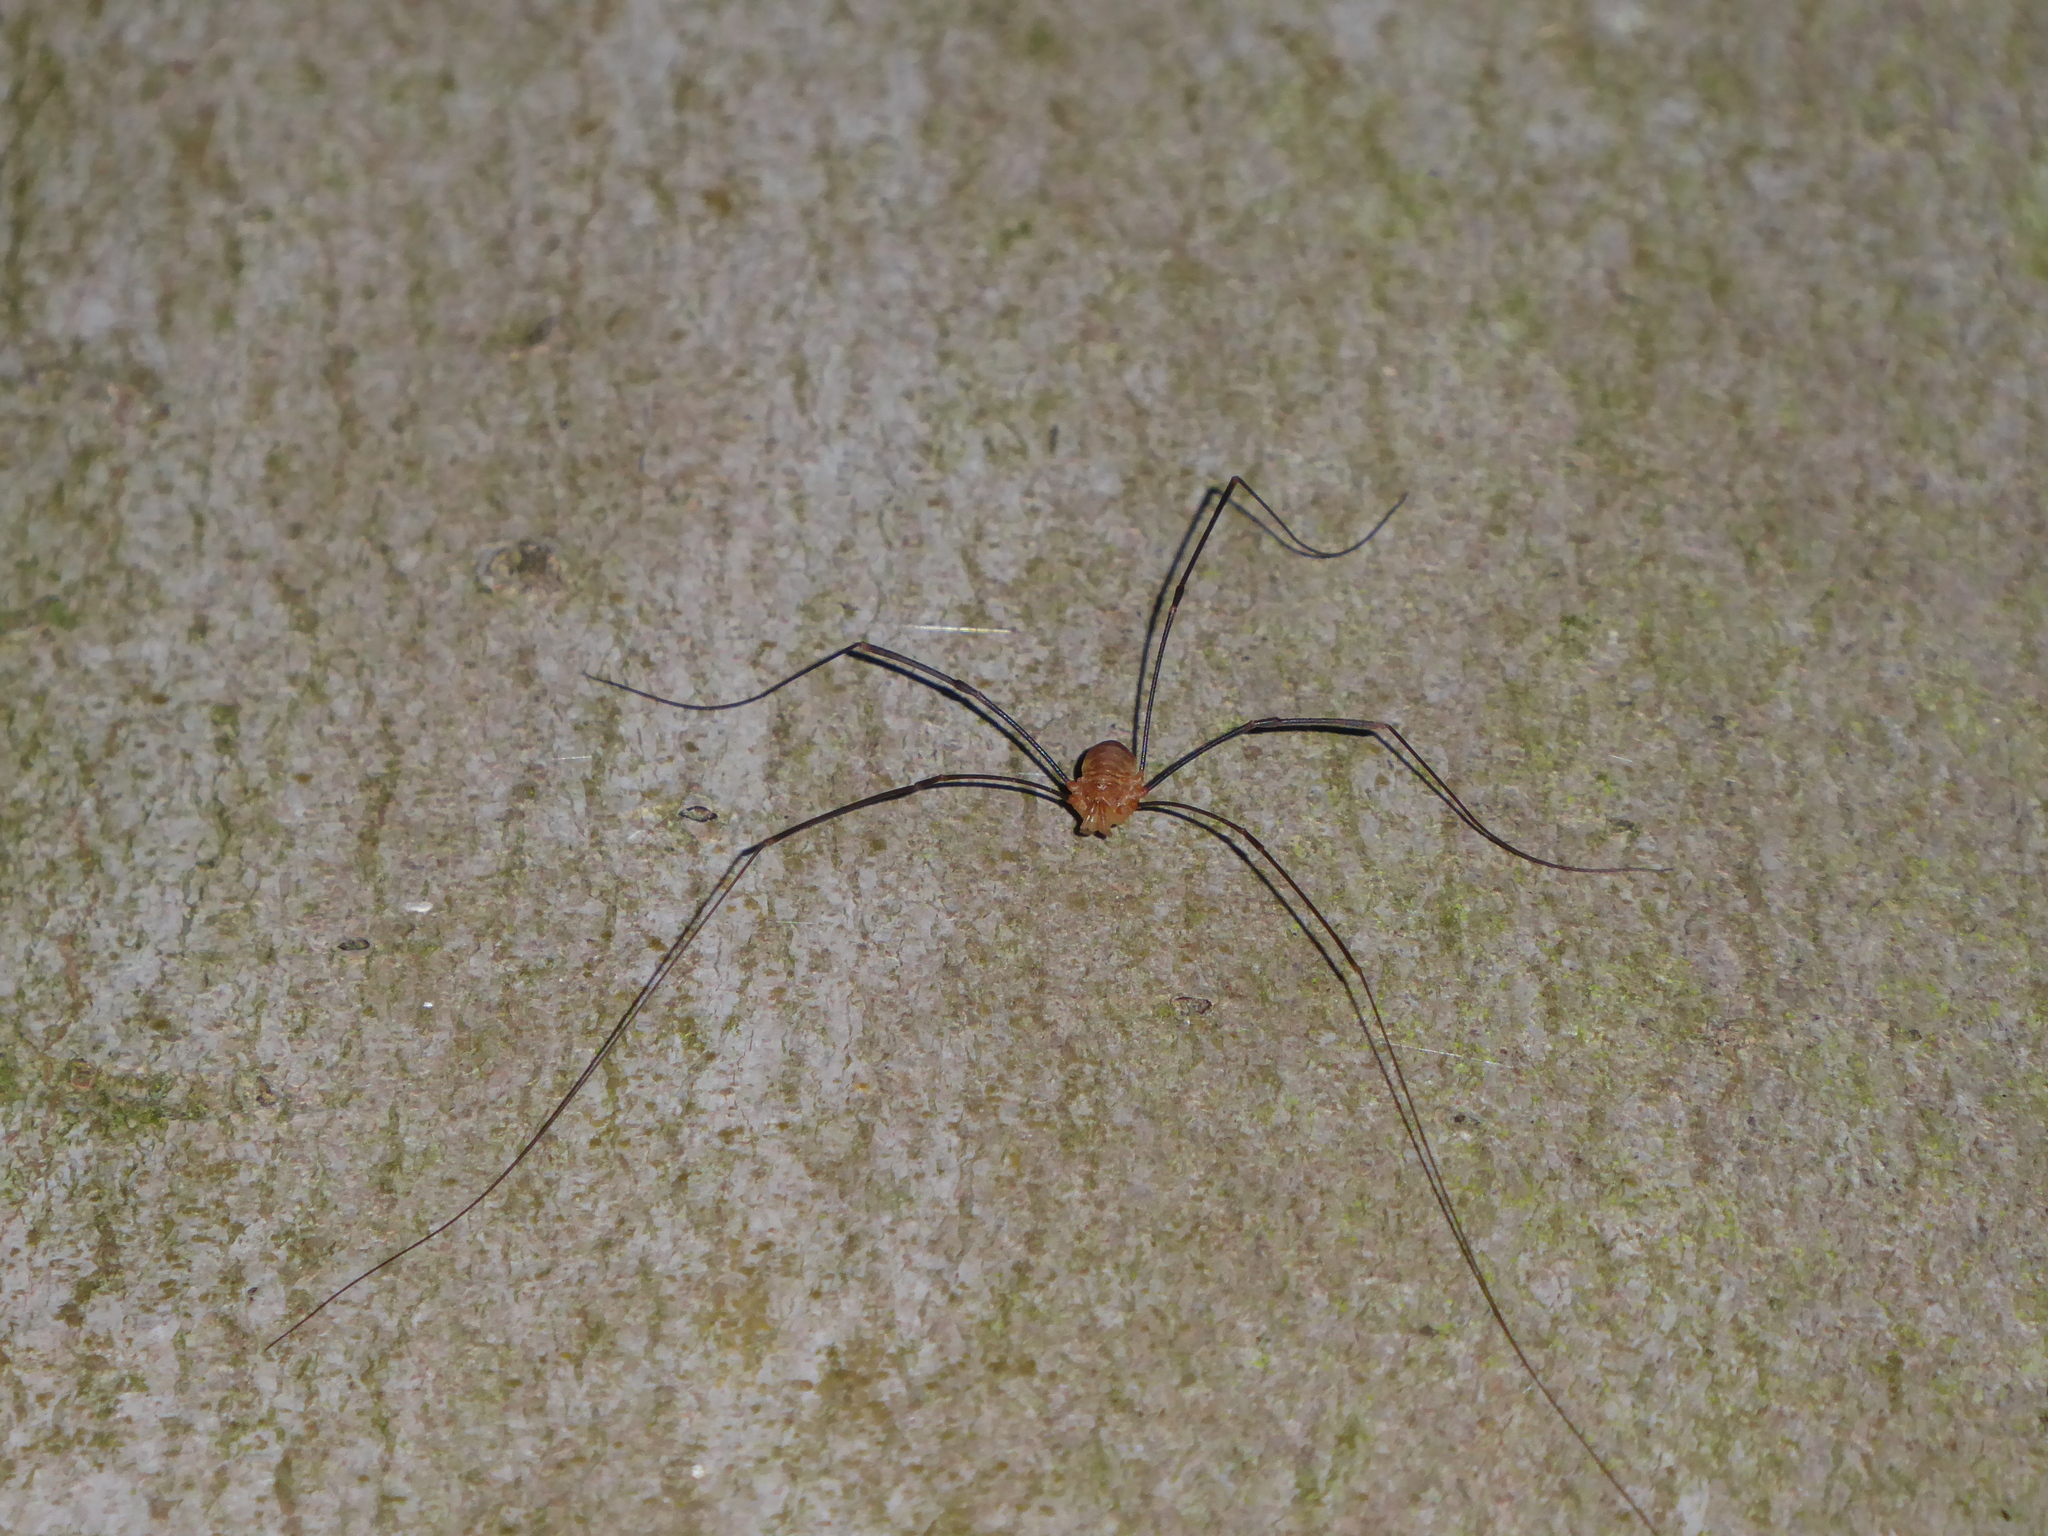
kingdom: Animalia
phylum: Arthropoda
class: Arachnida
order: Opiliones
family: Phalangiidae
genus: Opilio
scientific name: Opilio canestrinii
